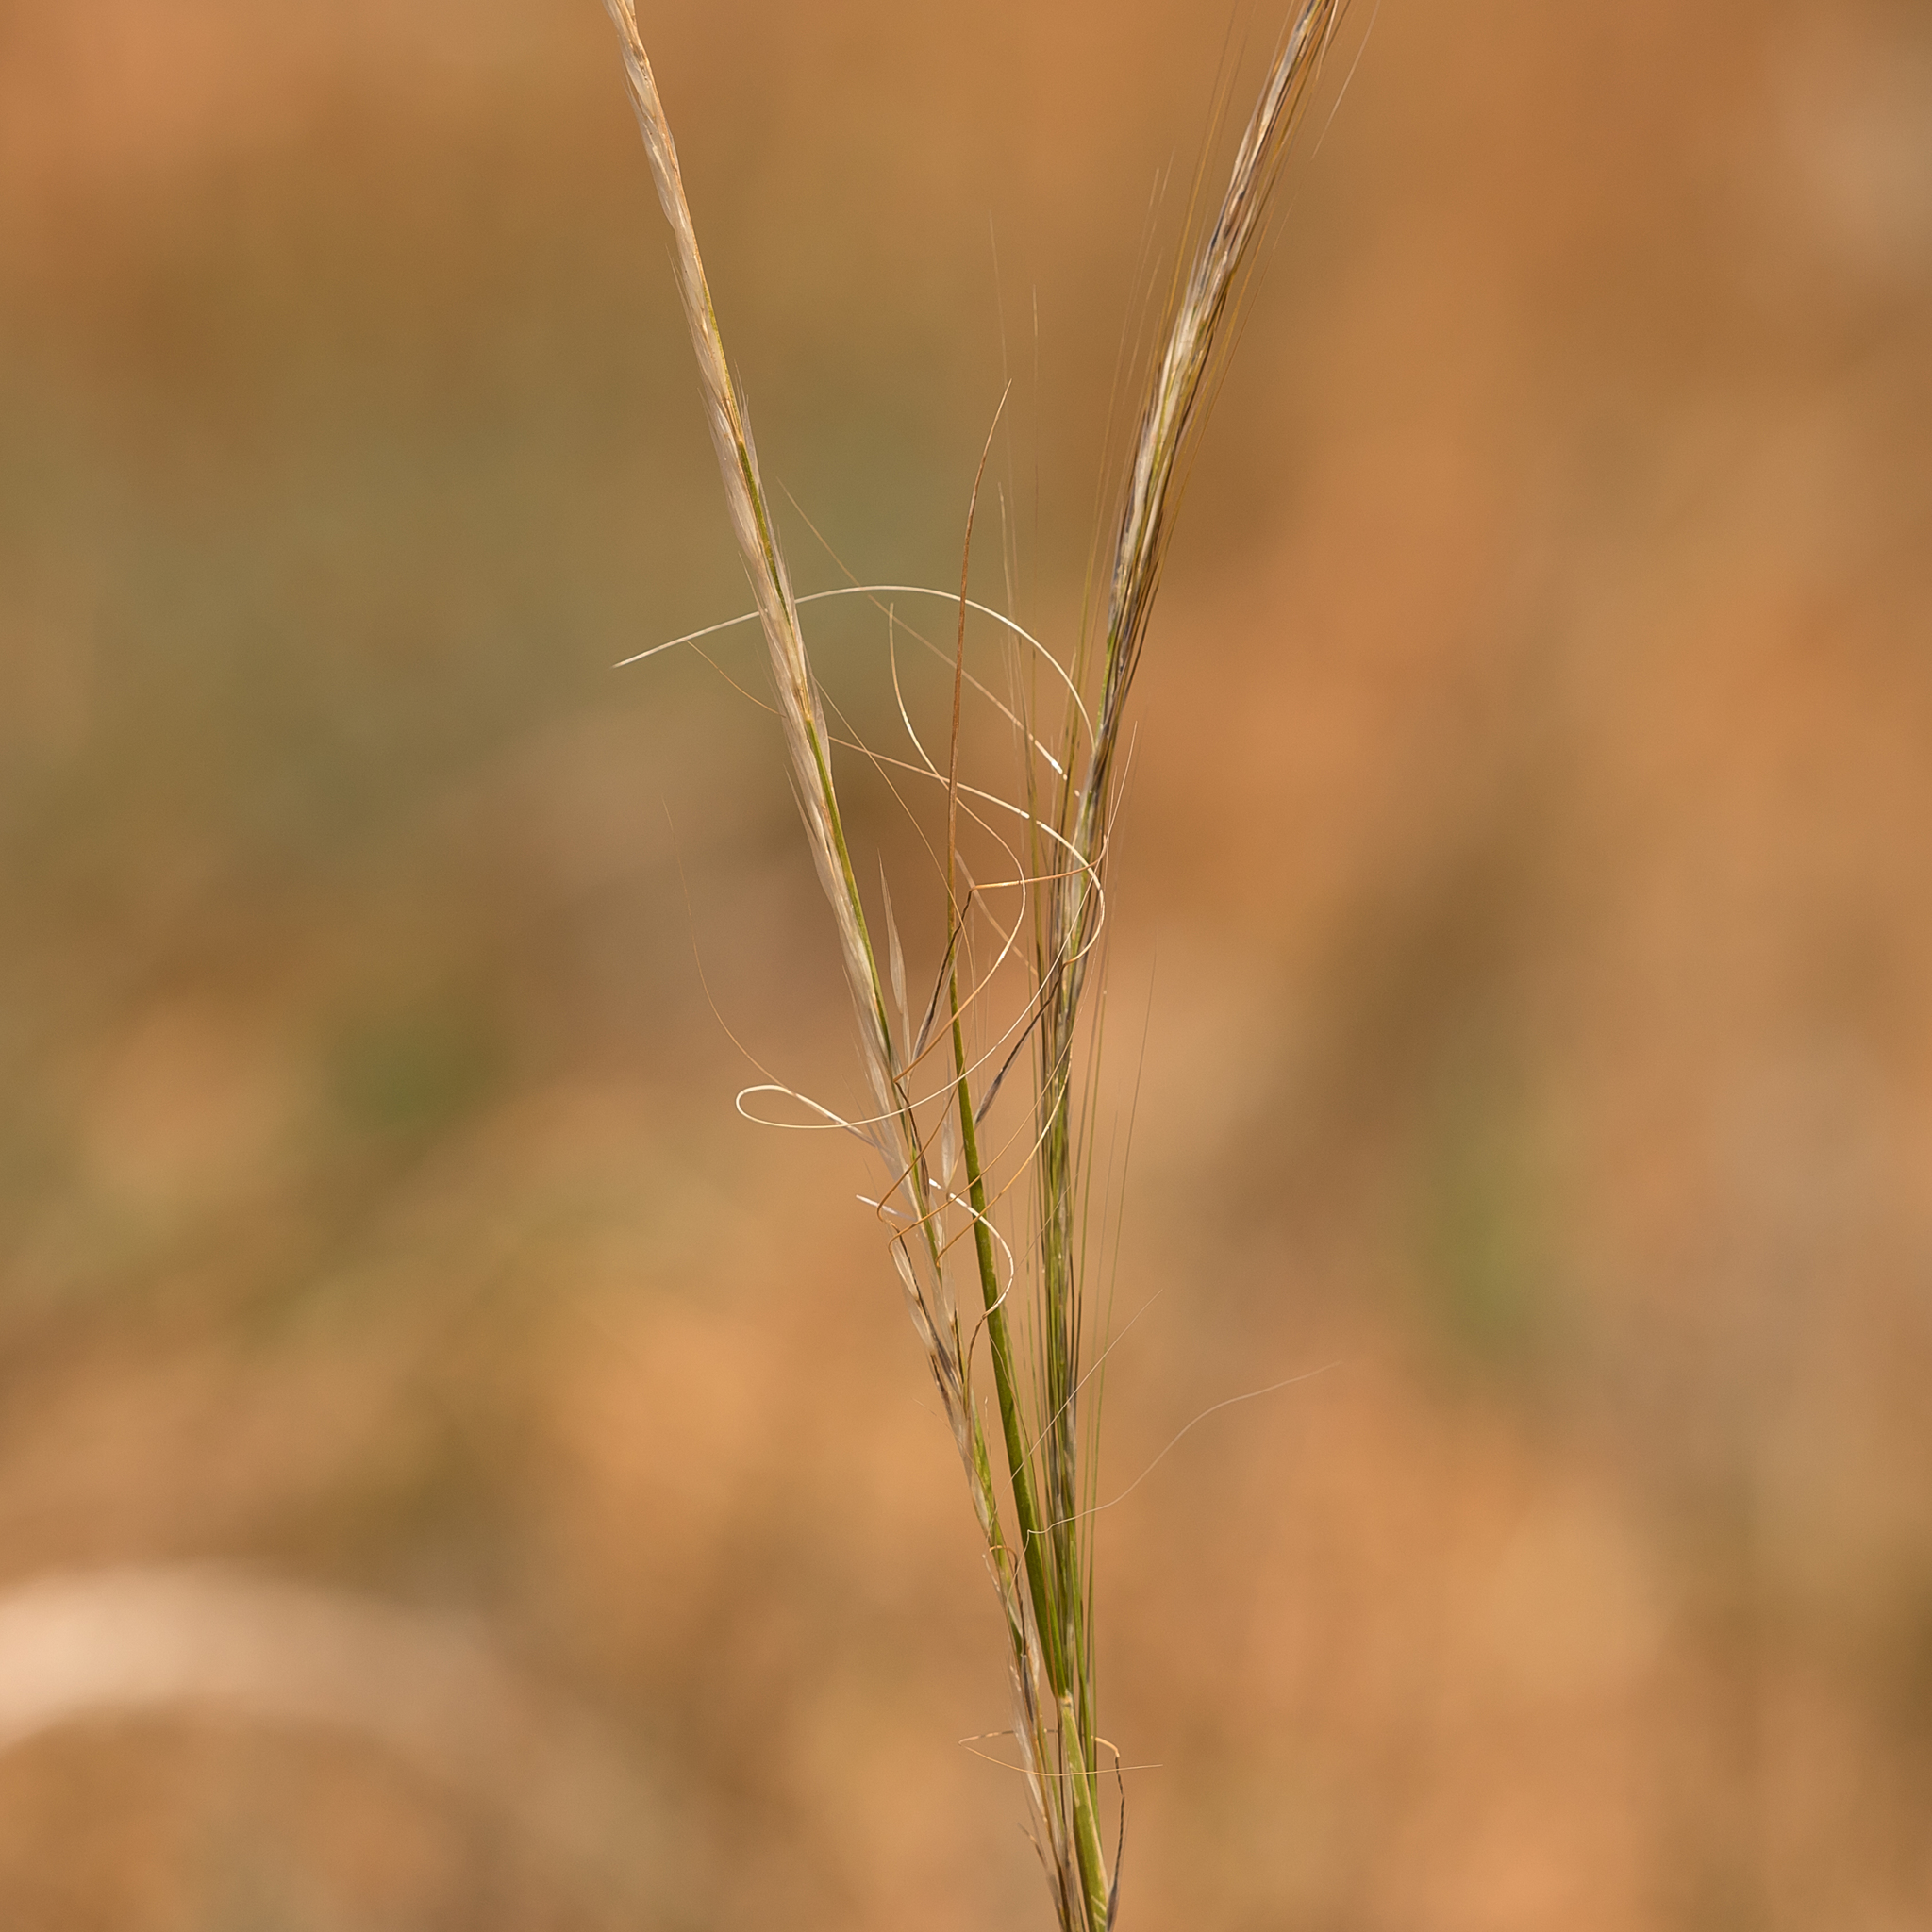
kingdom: Plantae
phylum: Tracheophyta
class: Liliopsida
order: Poales
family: Poaceae
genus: Austrostipa
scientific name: Austrostipa nitida
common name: Balcarra grass
